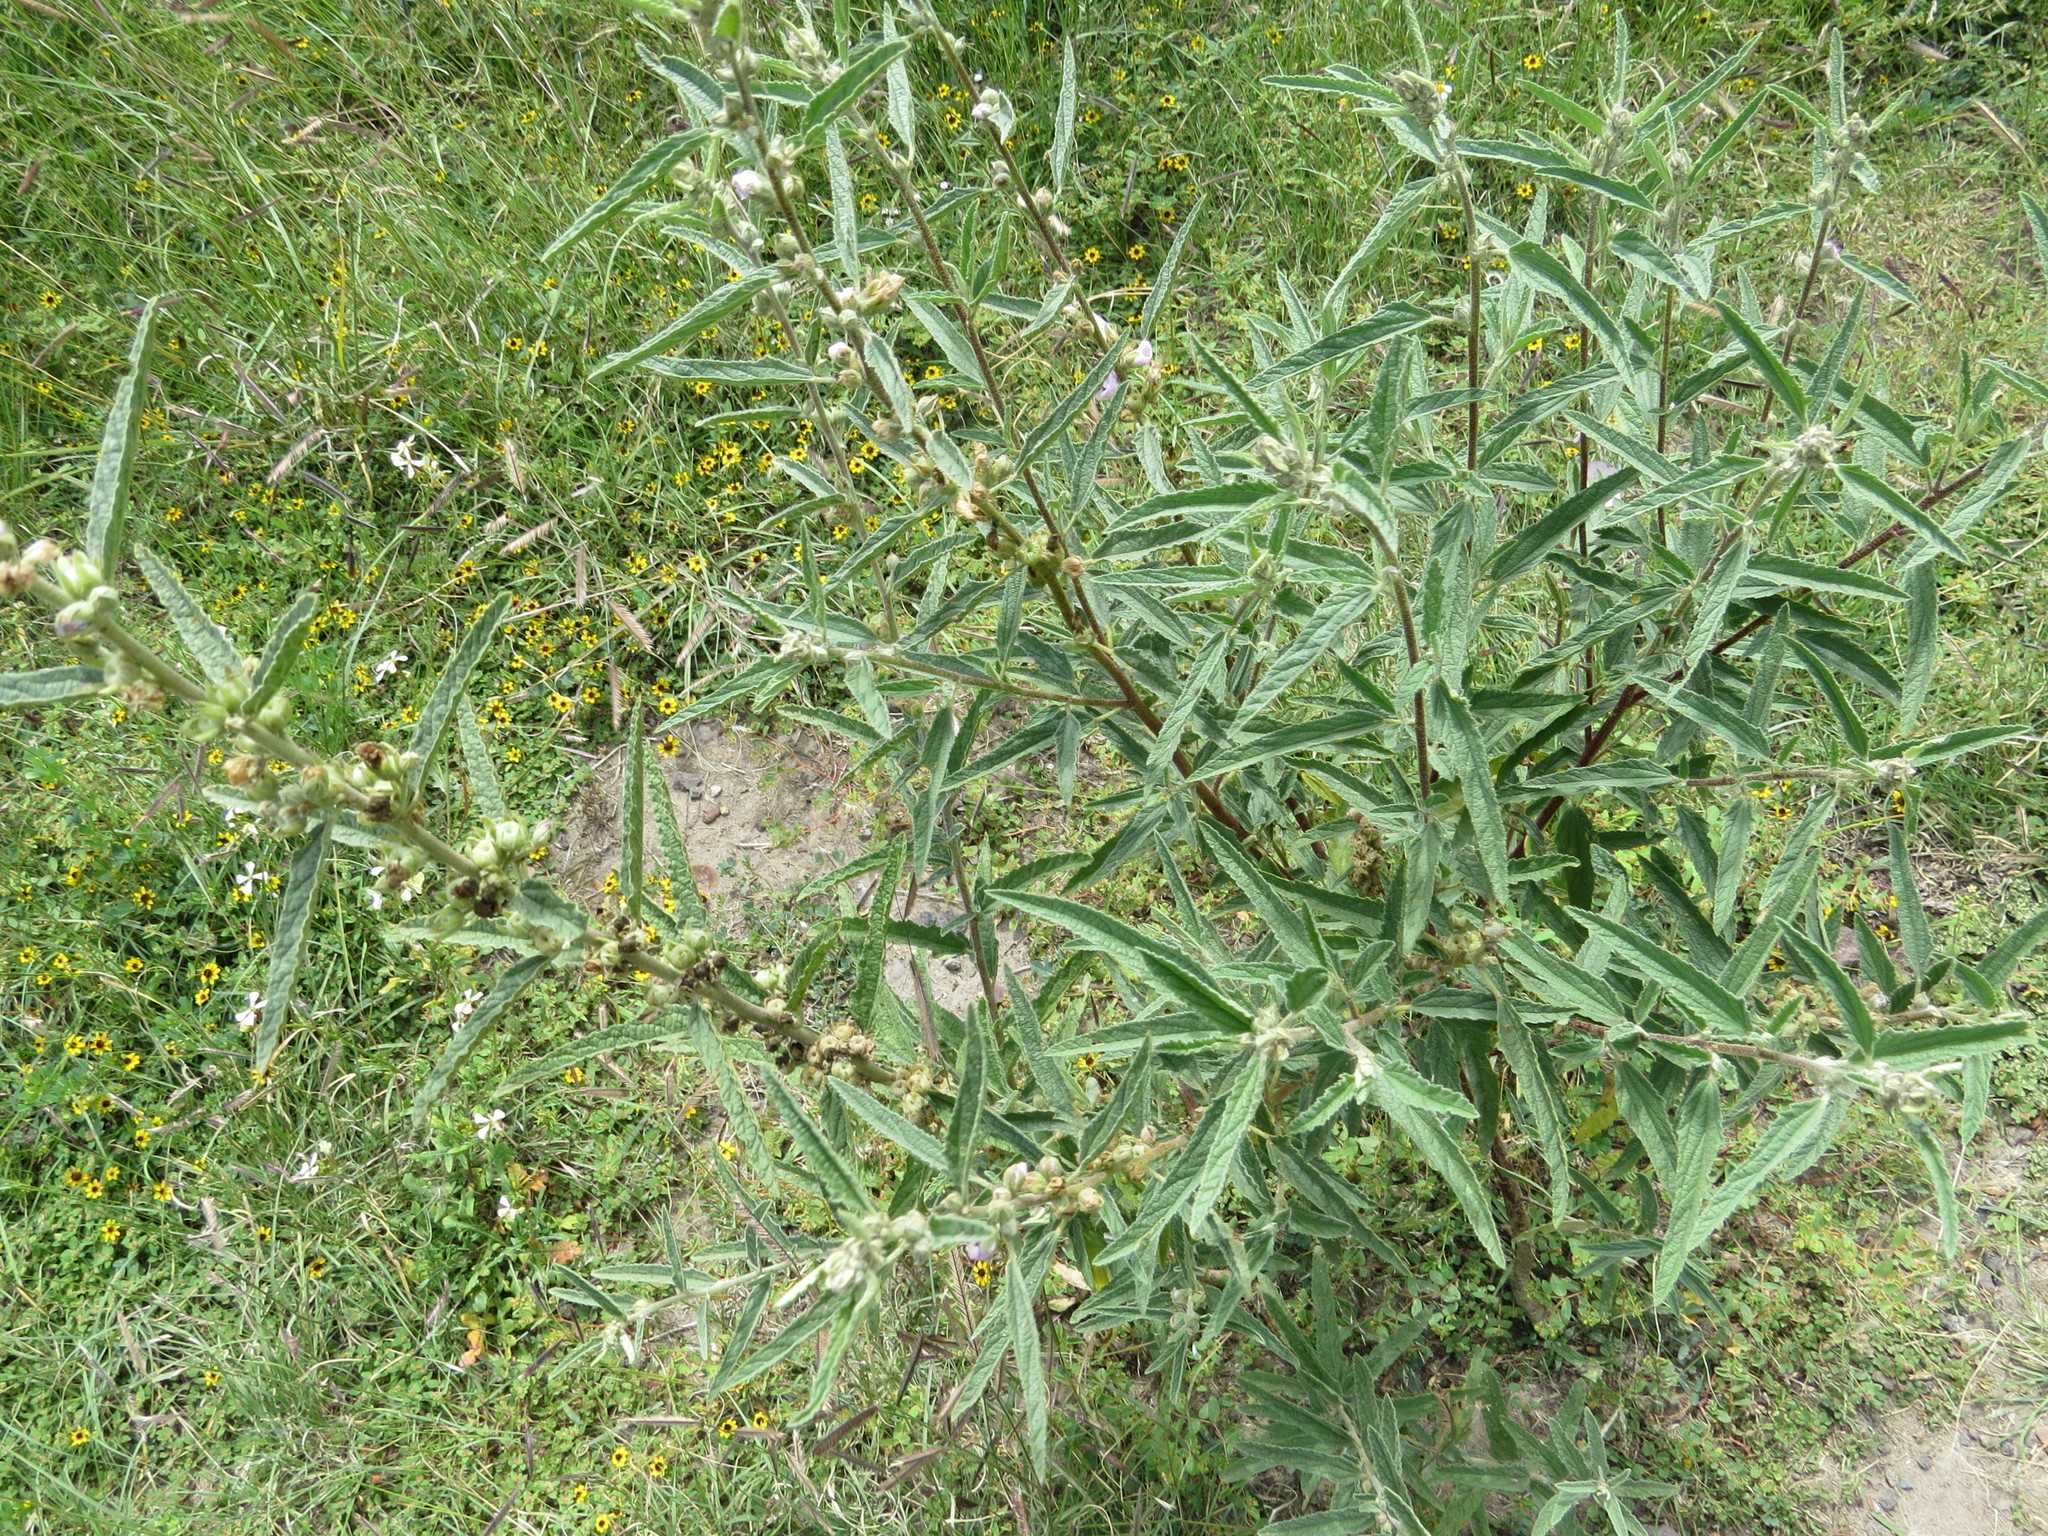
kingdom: Plantae
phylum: Tracheophyta
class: Magnoliopsida
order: Malvales
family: Malvaceae
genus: Sphaeralcea
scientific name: Sphaeralcea angustifolia
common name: Copper globe-mallow
